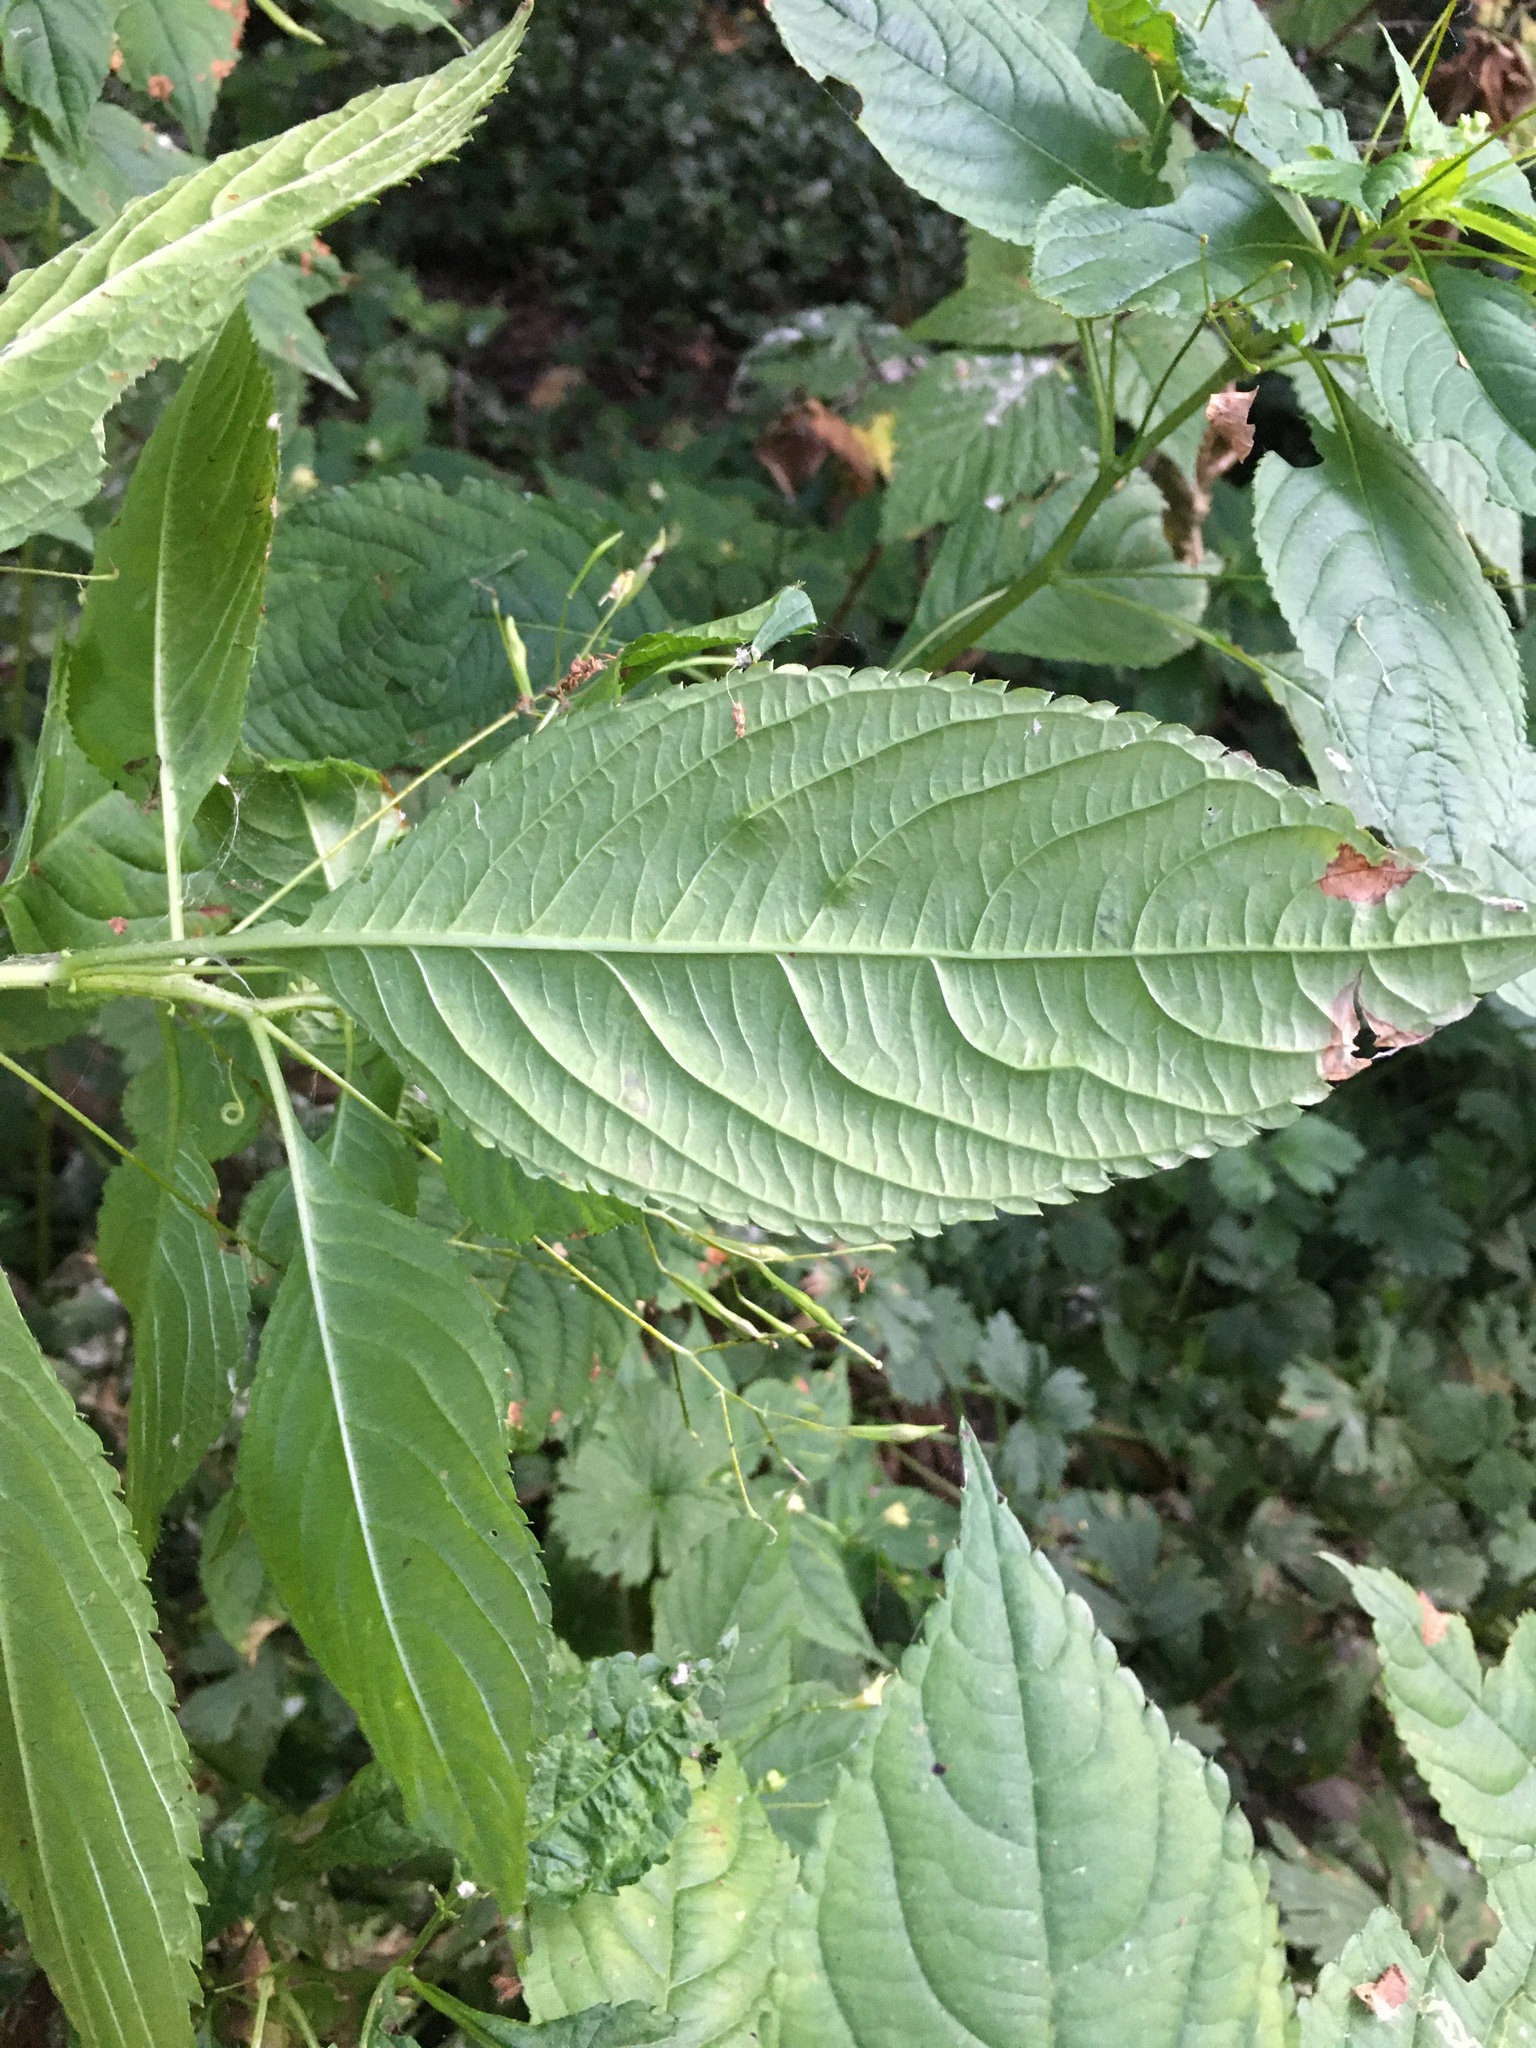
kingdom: Plantae
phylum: Tracheophyta
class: Magnoliopsida
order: Ericales
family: Balsaminaceae
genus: Impatiens
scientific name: Impatiens parviflora
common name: Small balsam
